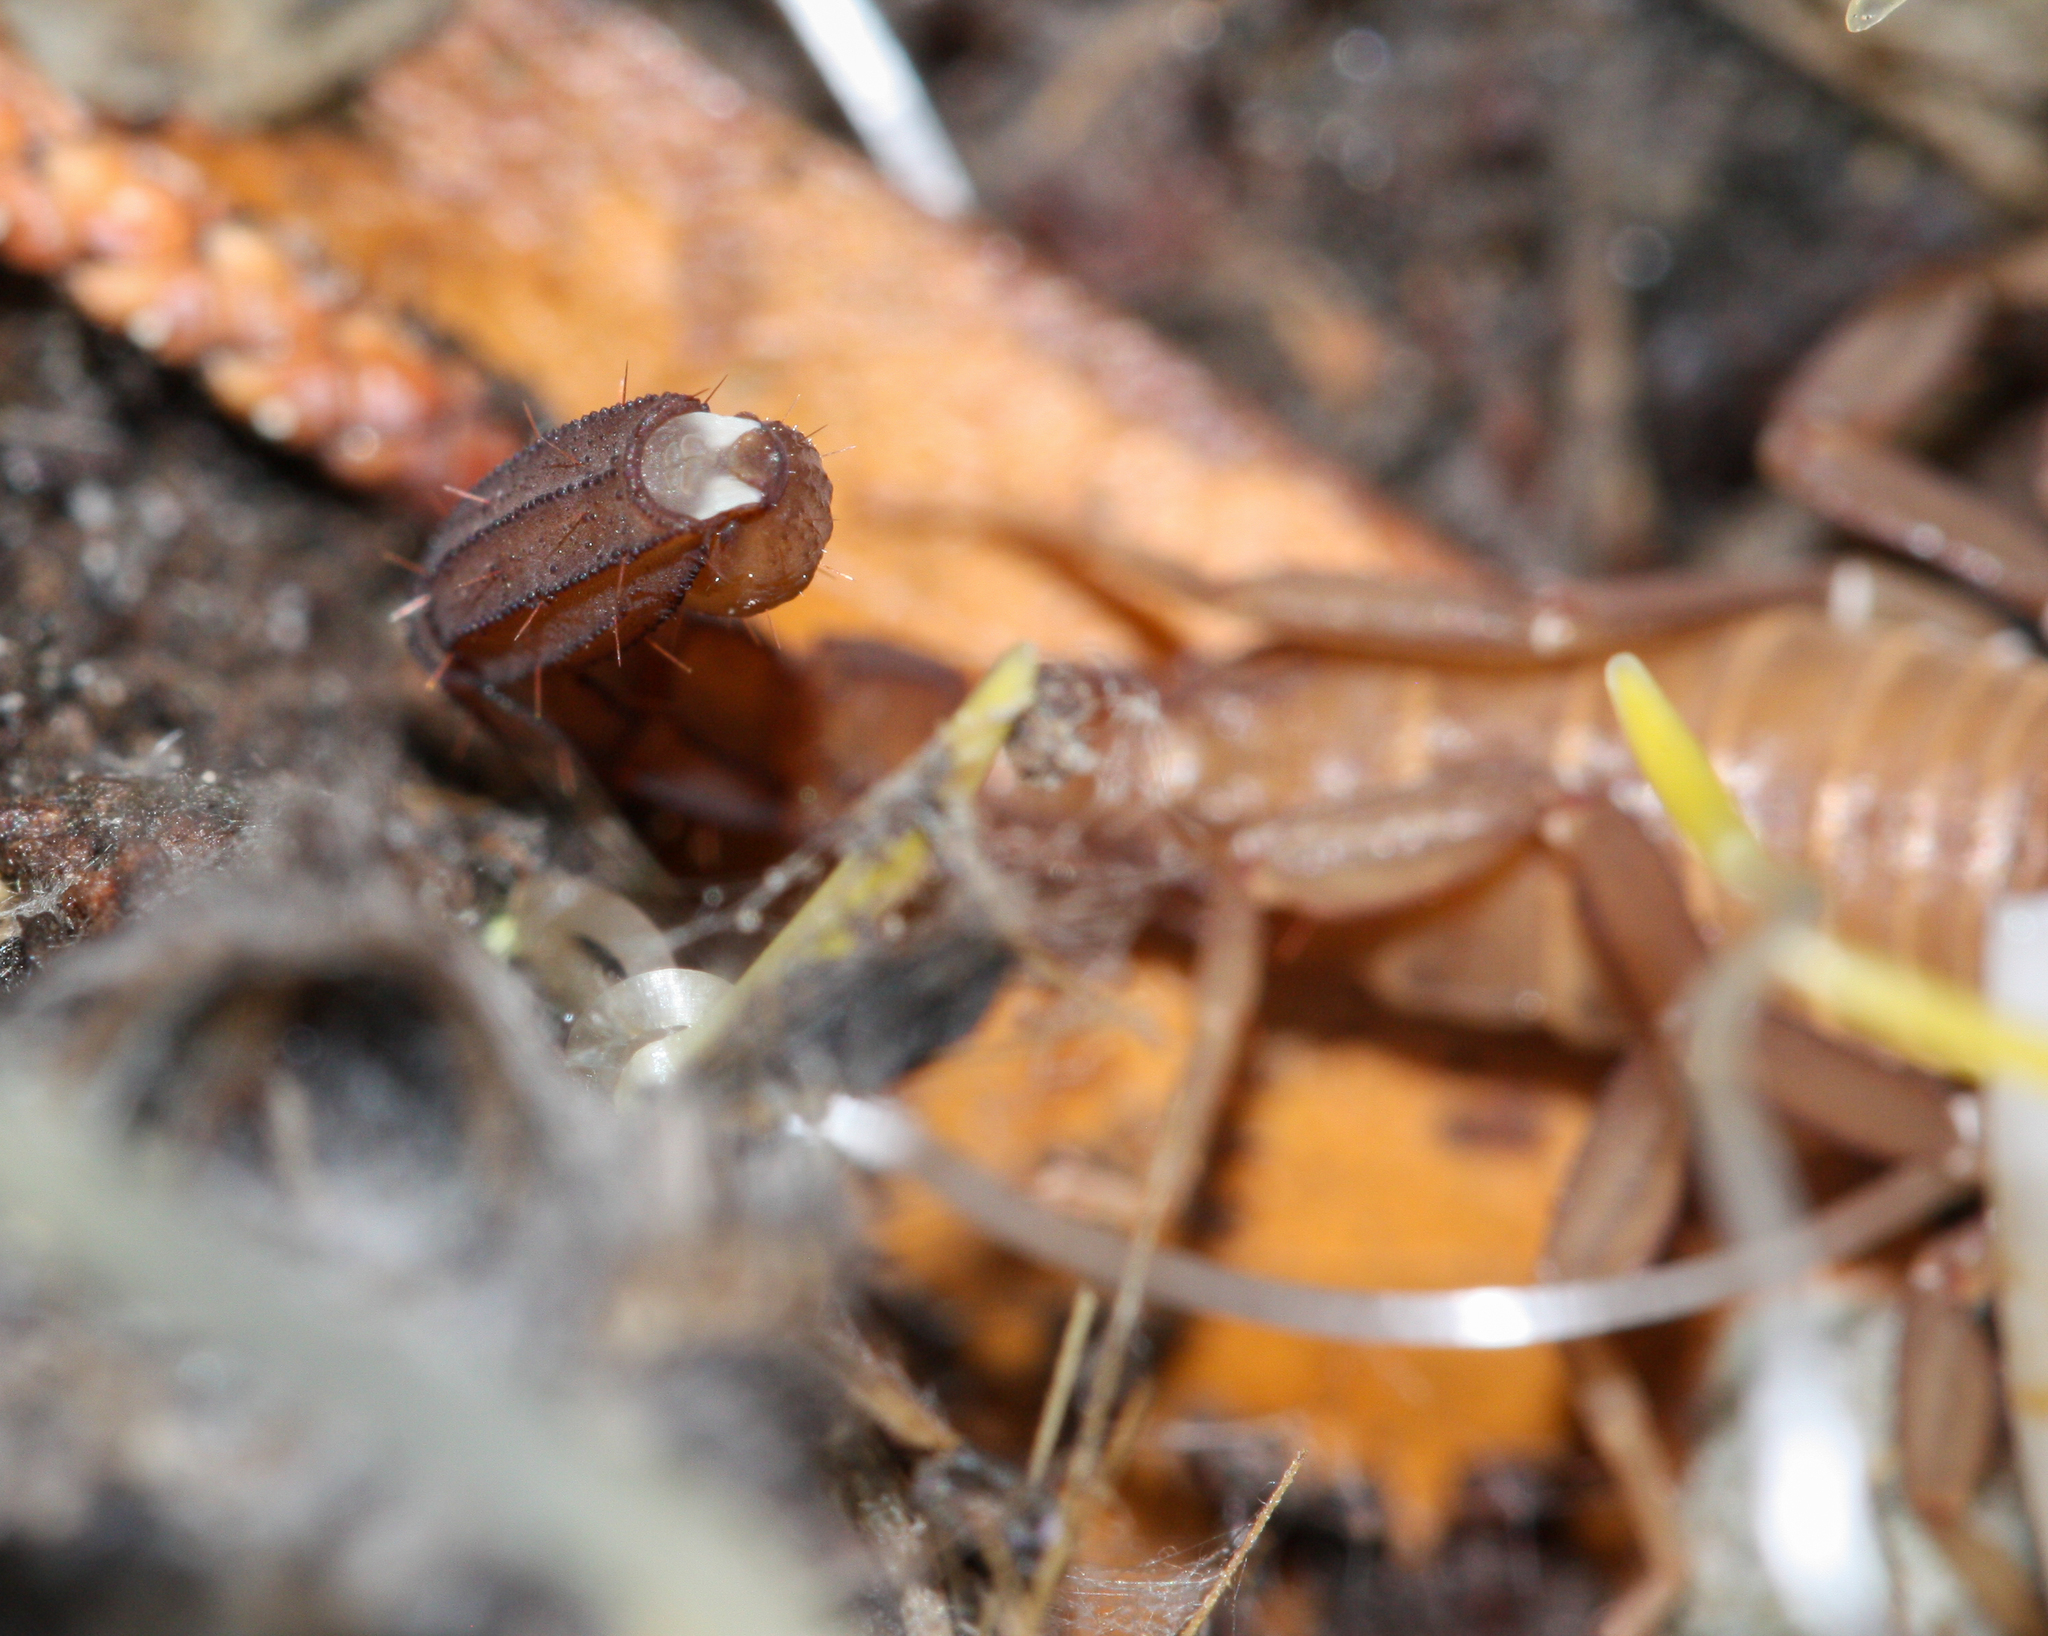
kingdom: Animalia
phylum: Arthropoda
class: Arachnida
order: Scorpiones
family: Vaejovidae
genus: Pseudouroctonus
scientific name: Pseudouroctonus apacheanus
